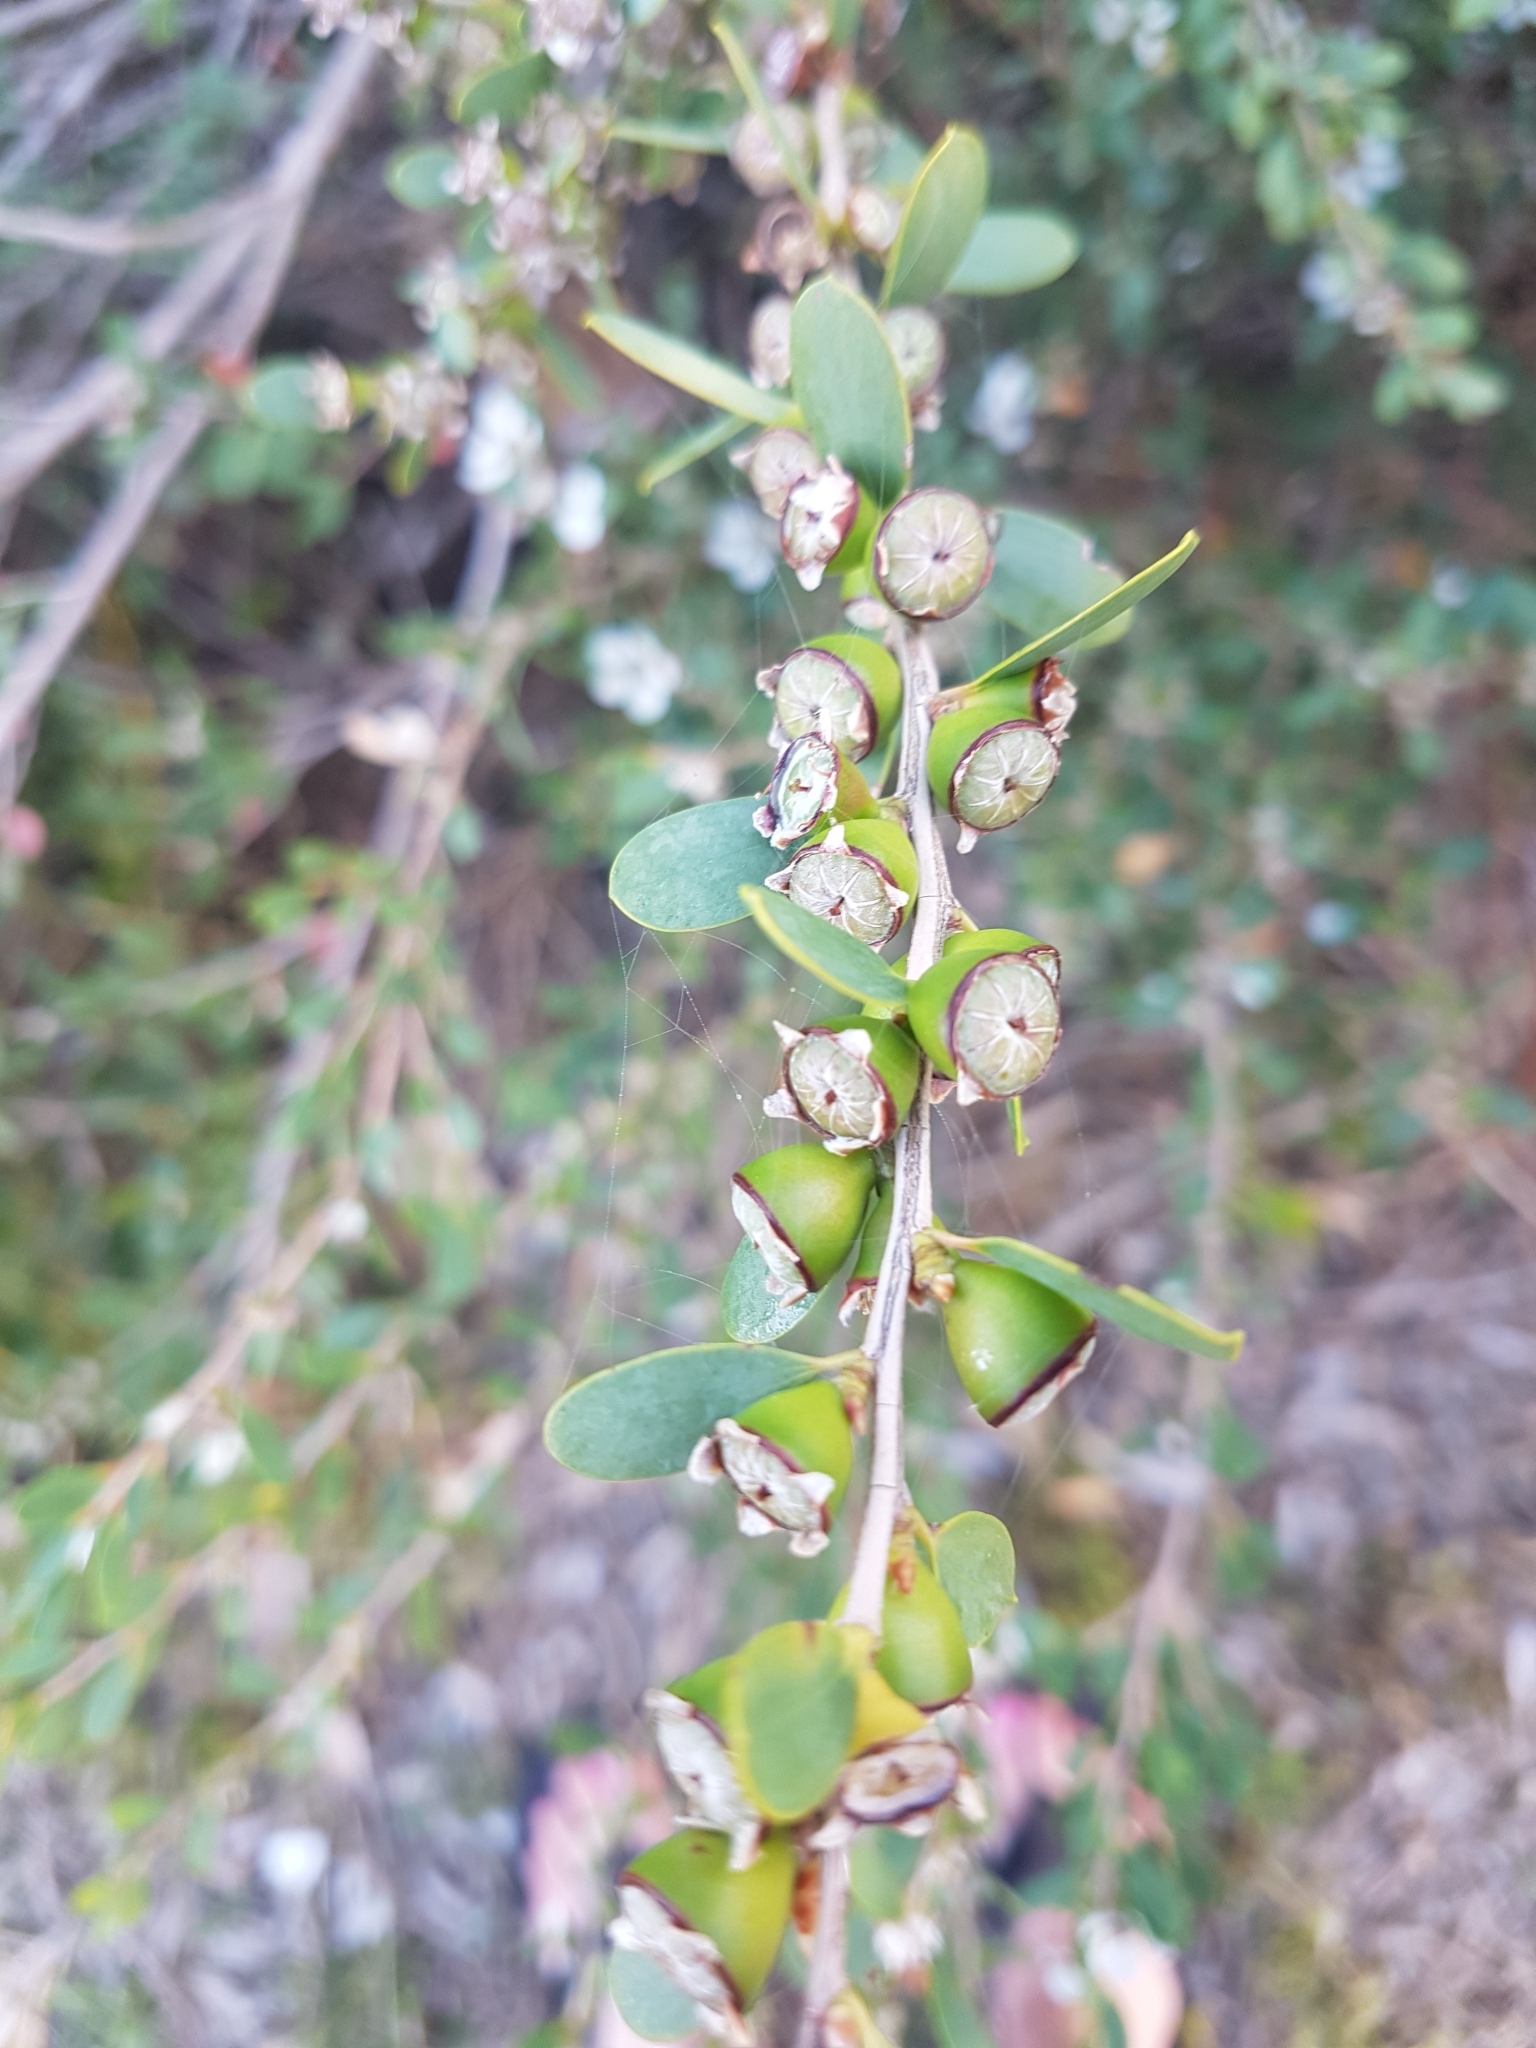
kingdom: Plantae
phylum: Tracheophyta
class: Magnoliopsida
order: Myrtales
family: Myrtaceae
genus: Leptospermum
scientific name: Leptospermum laevigatum
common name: Australian teatree
